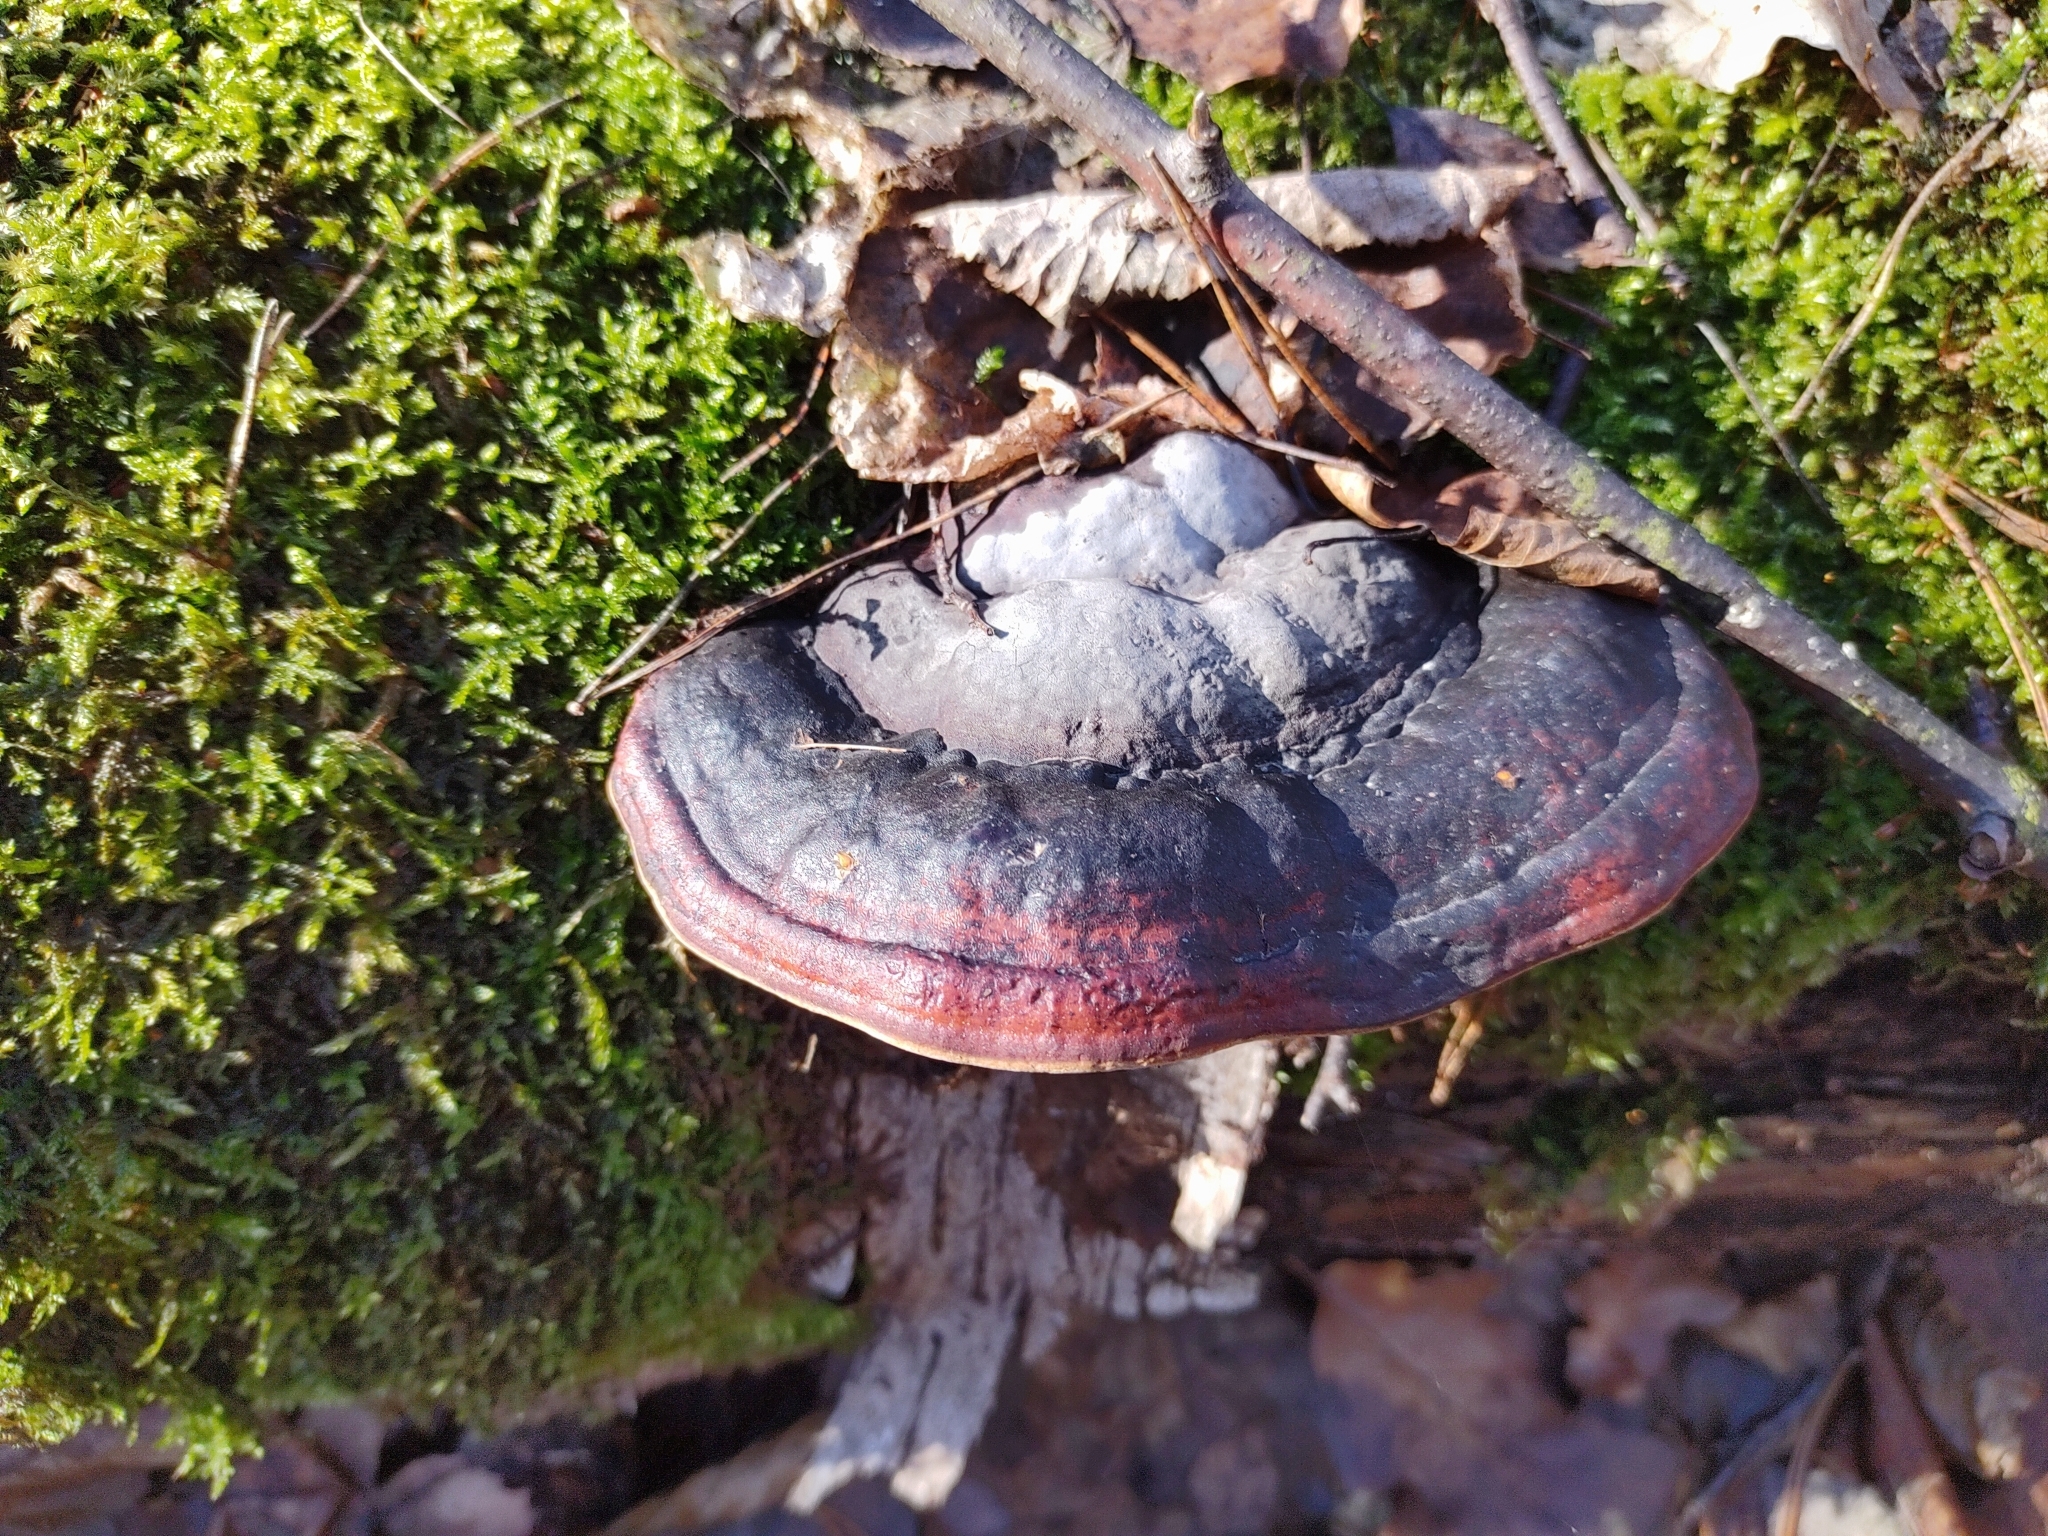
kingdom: Fungi
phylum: Basidiomycota
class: Agaricomycetes
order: Polyporales
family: Fomitopsidaceae
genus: Fomitopsis
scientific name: Fomitopsis pinicola
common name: Red-belted bracket
